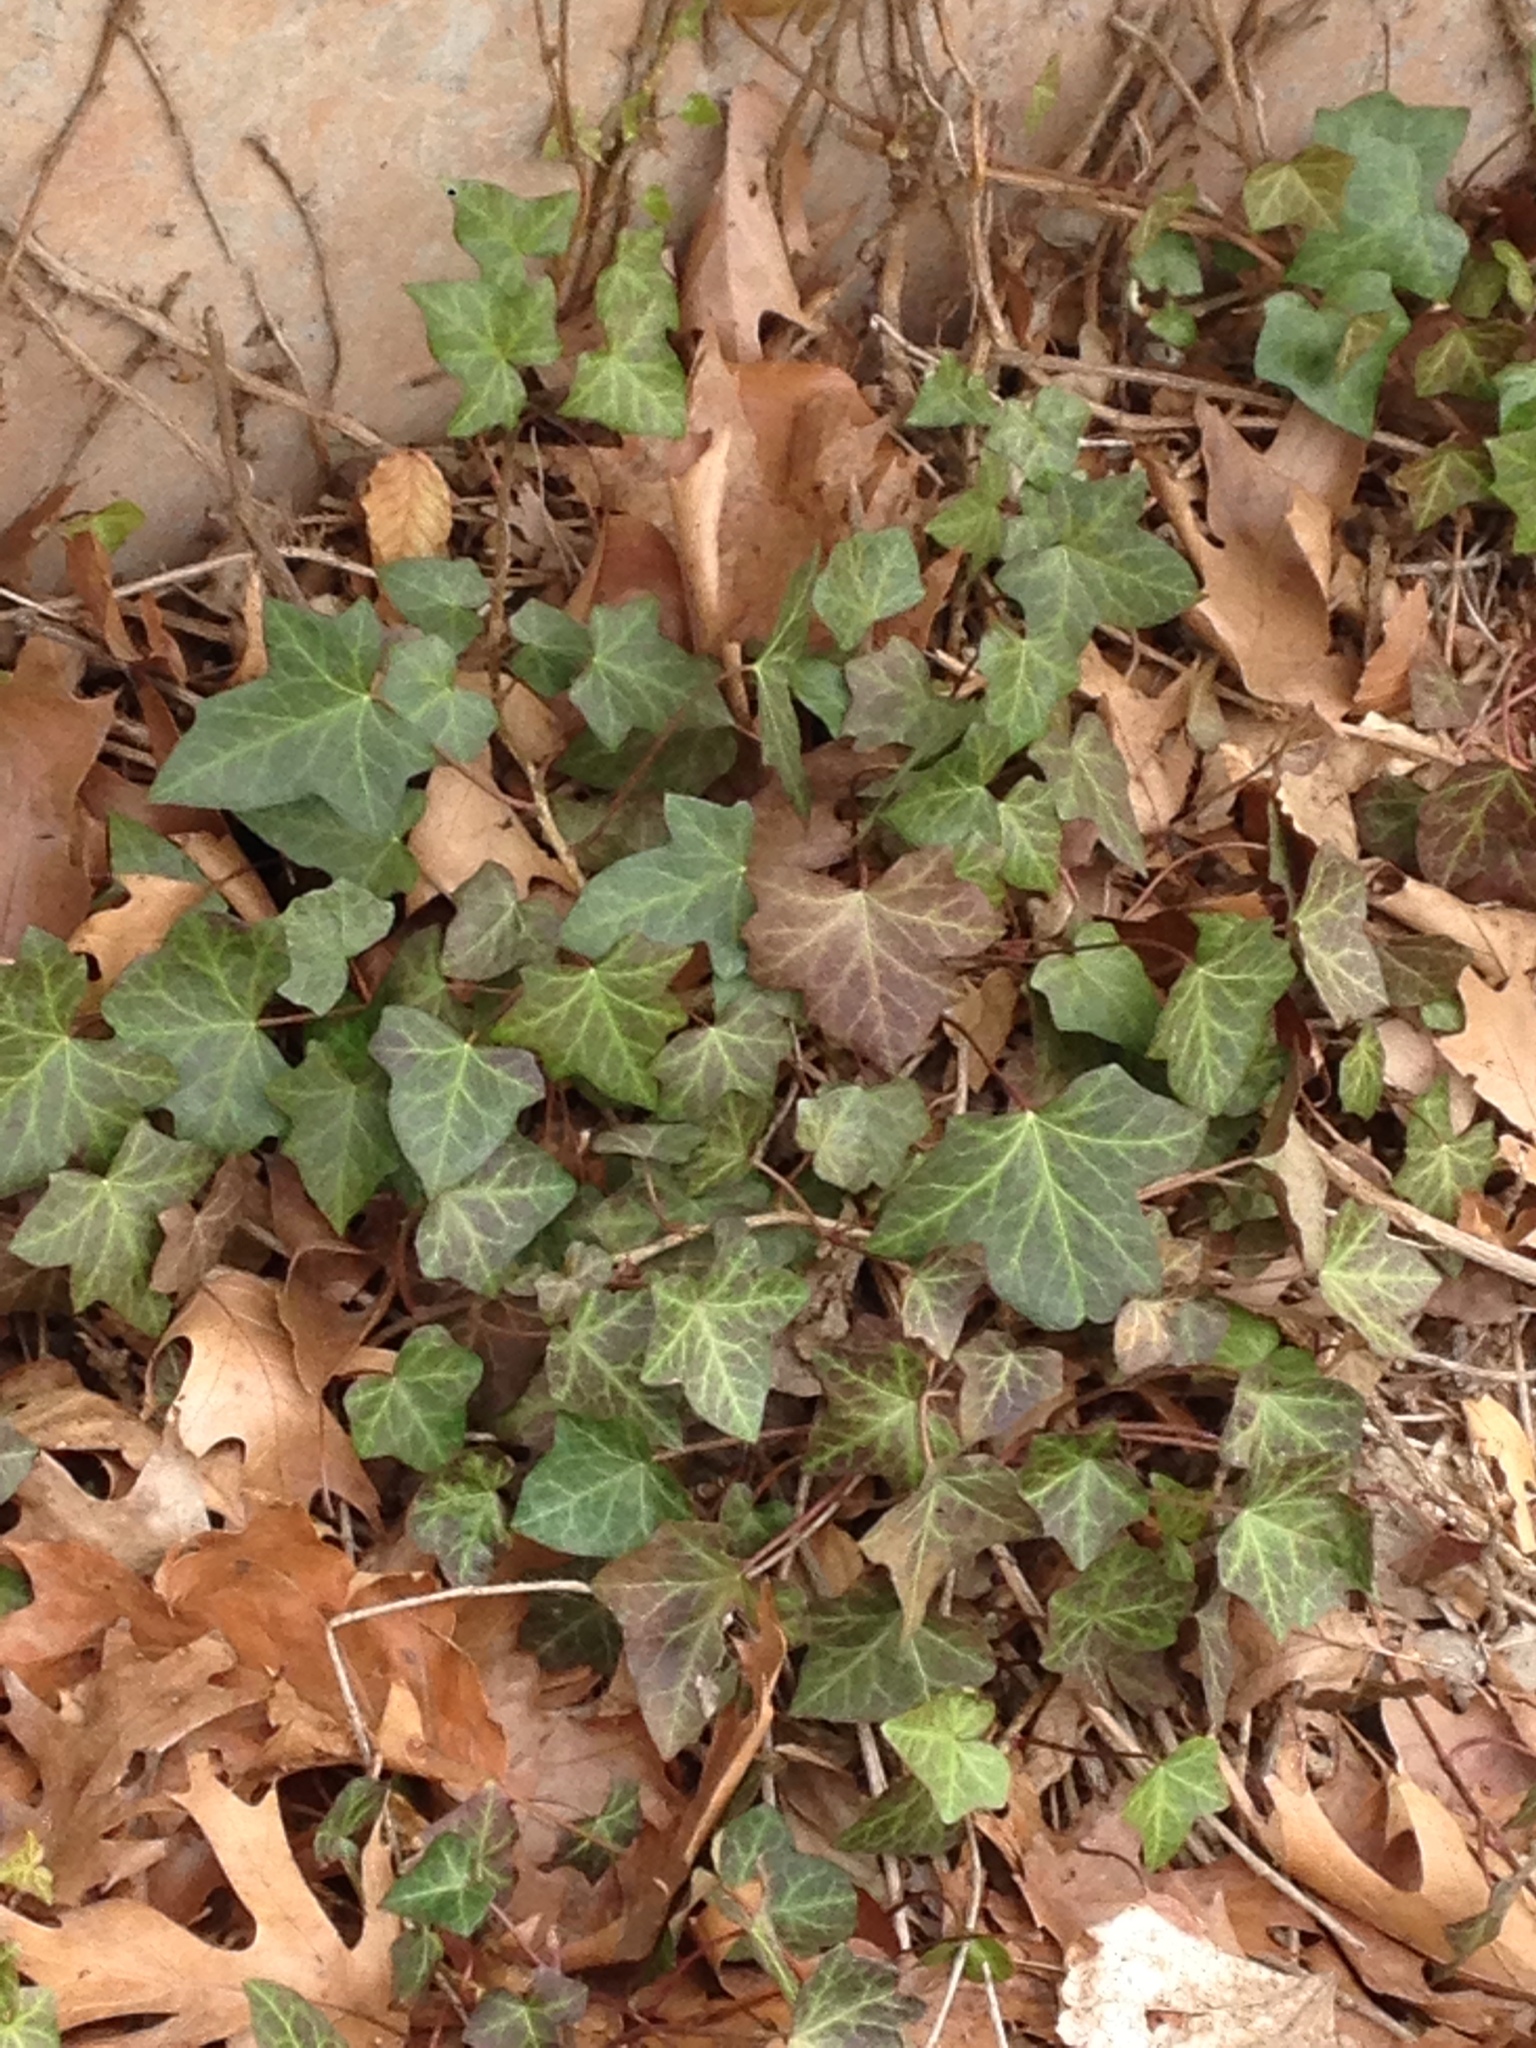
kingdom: Plantae
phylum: Tracheophyta
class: Magnoliopsida
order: Apiales
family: Araliaceae
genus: Hedera
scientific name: Hedera helix
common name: Ivy
